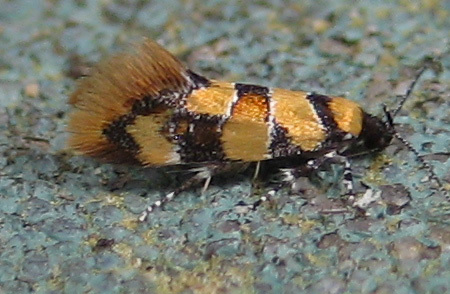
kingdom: Animalia
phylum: Arthropoda
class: Insecta
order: Lepidoptera
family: Oecophoridae
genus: Decantha
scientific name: Decantha borkhausenii
